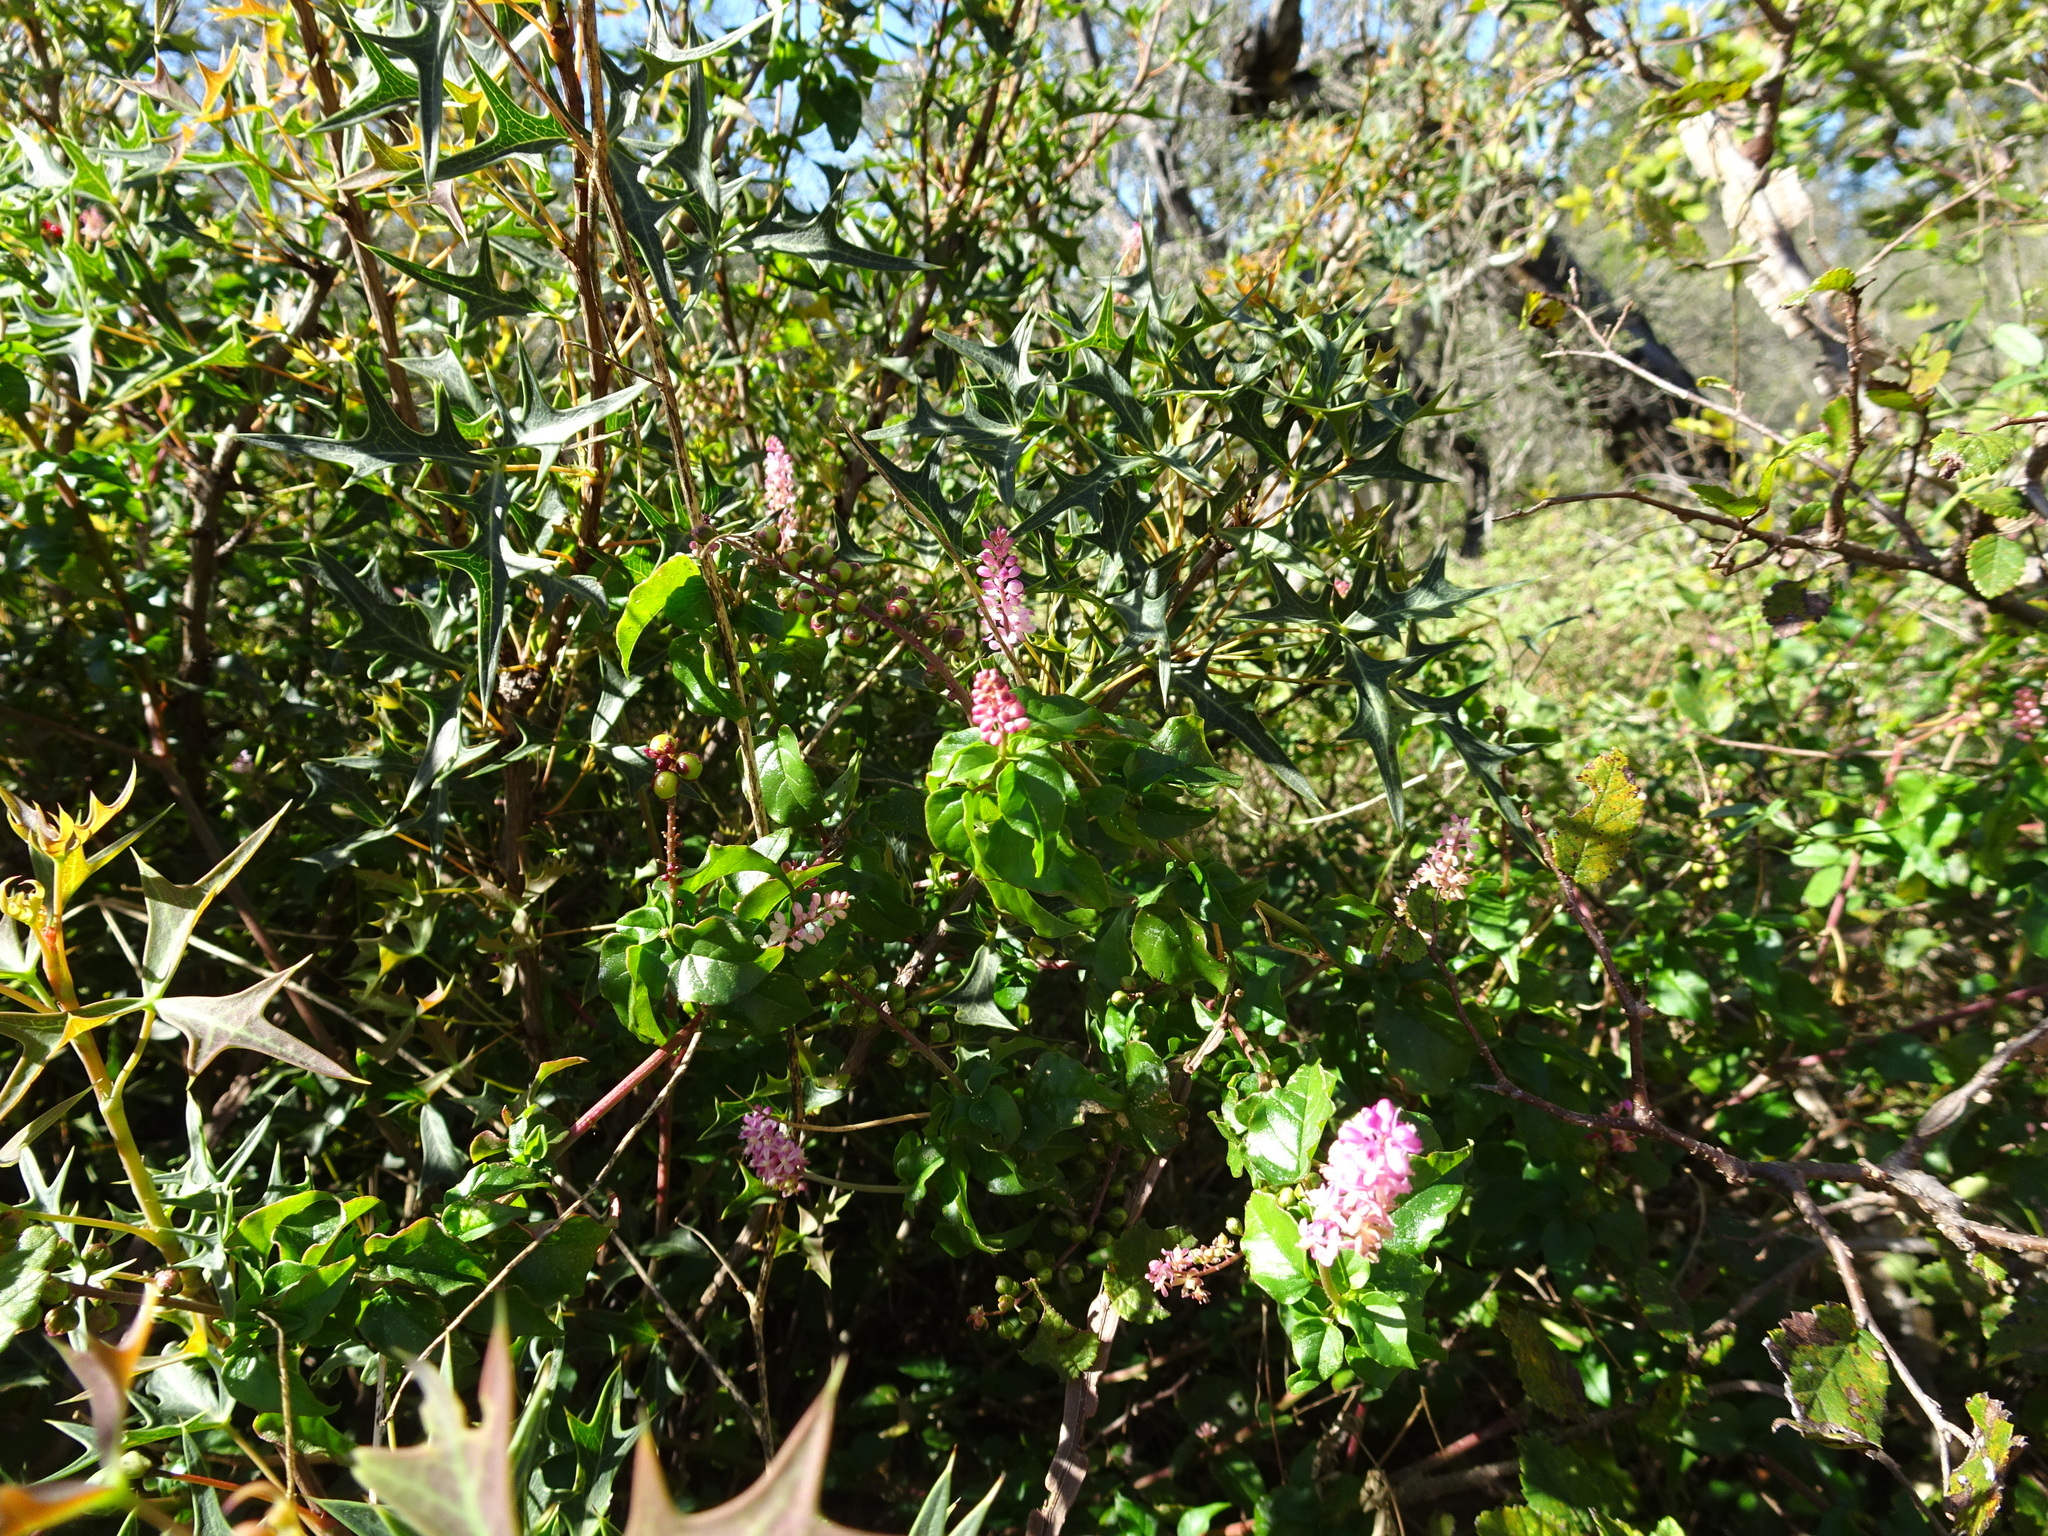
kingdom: Plantae
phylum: Tracheophyta
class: Magnoliopsida
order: Caryophyllales
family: Phytolaccaceae
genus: Rivina
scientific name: Rivina humilis
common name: Rougeplant
